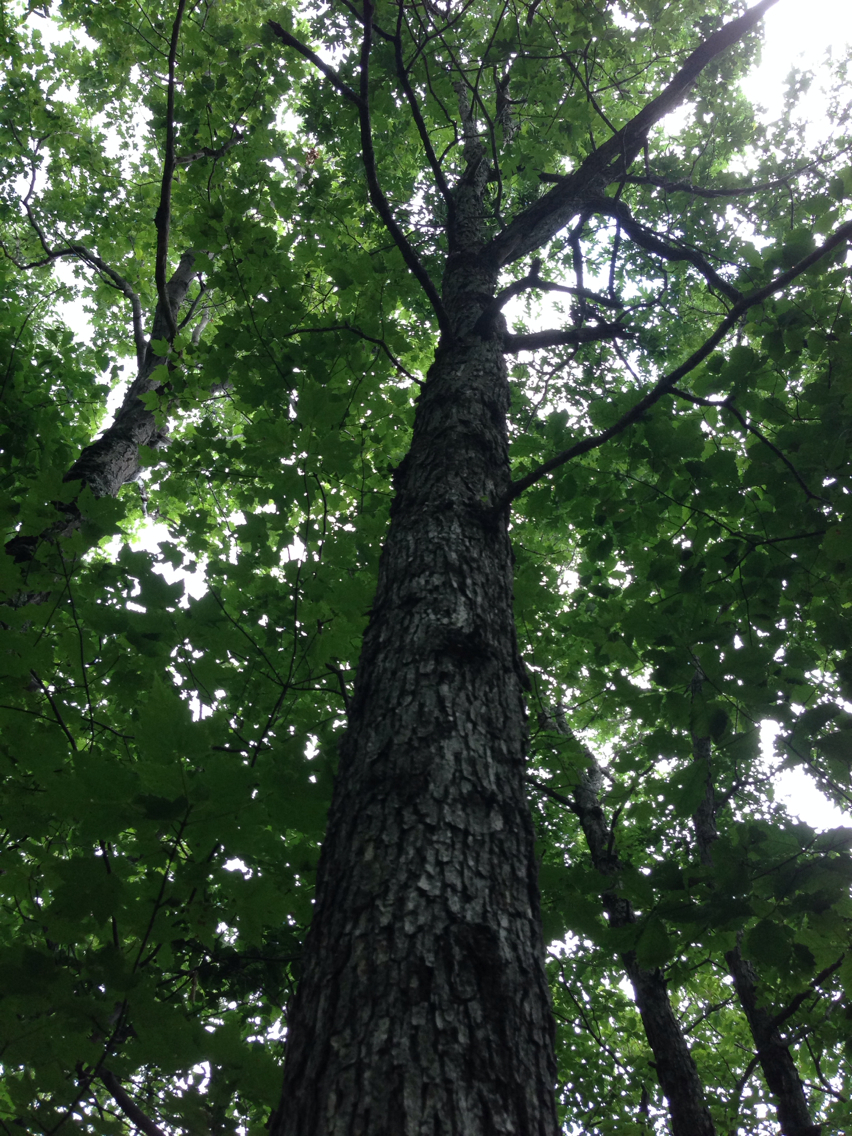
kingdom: Plantae
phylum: Tracheophyta
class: Magnoliopsida
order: Fagales
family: Fagaceae
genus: Quercus
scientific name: Quercus alba
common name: White oak
